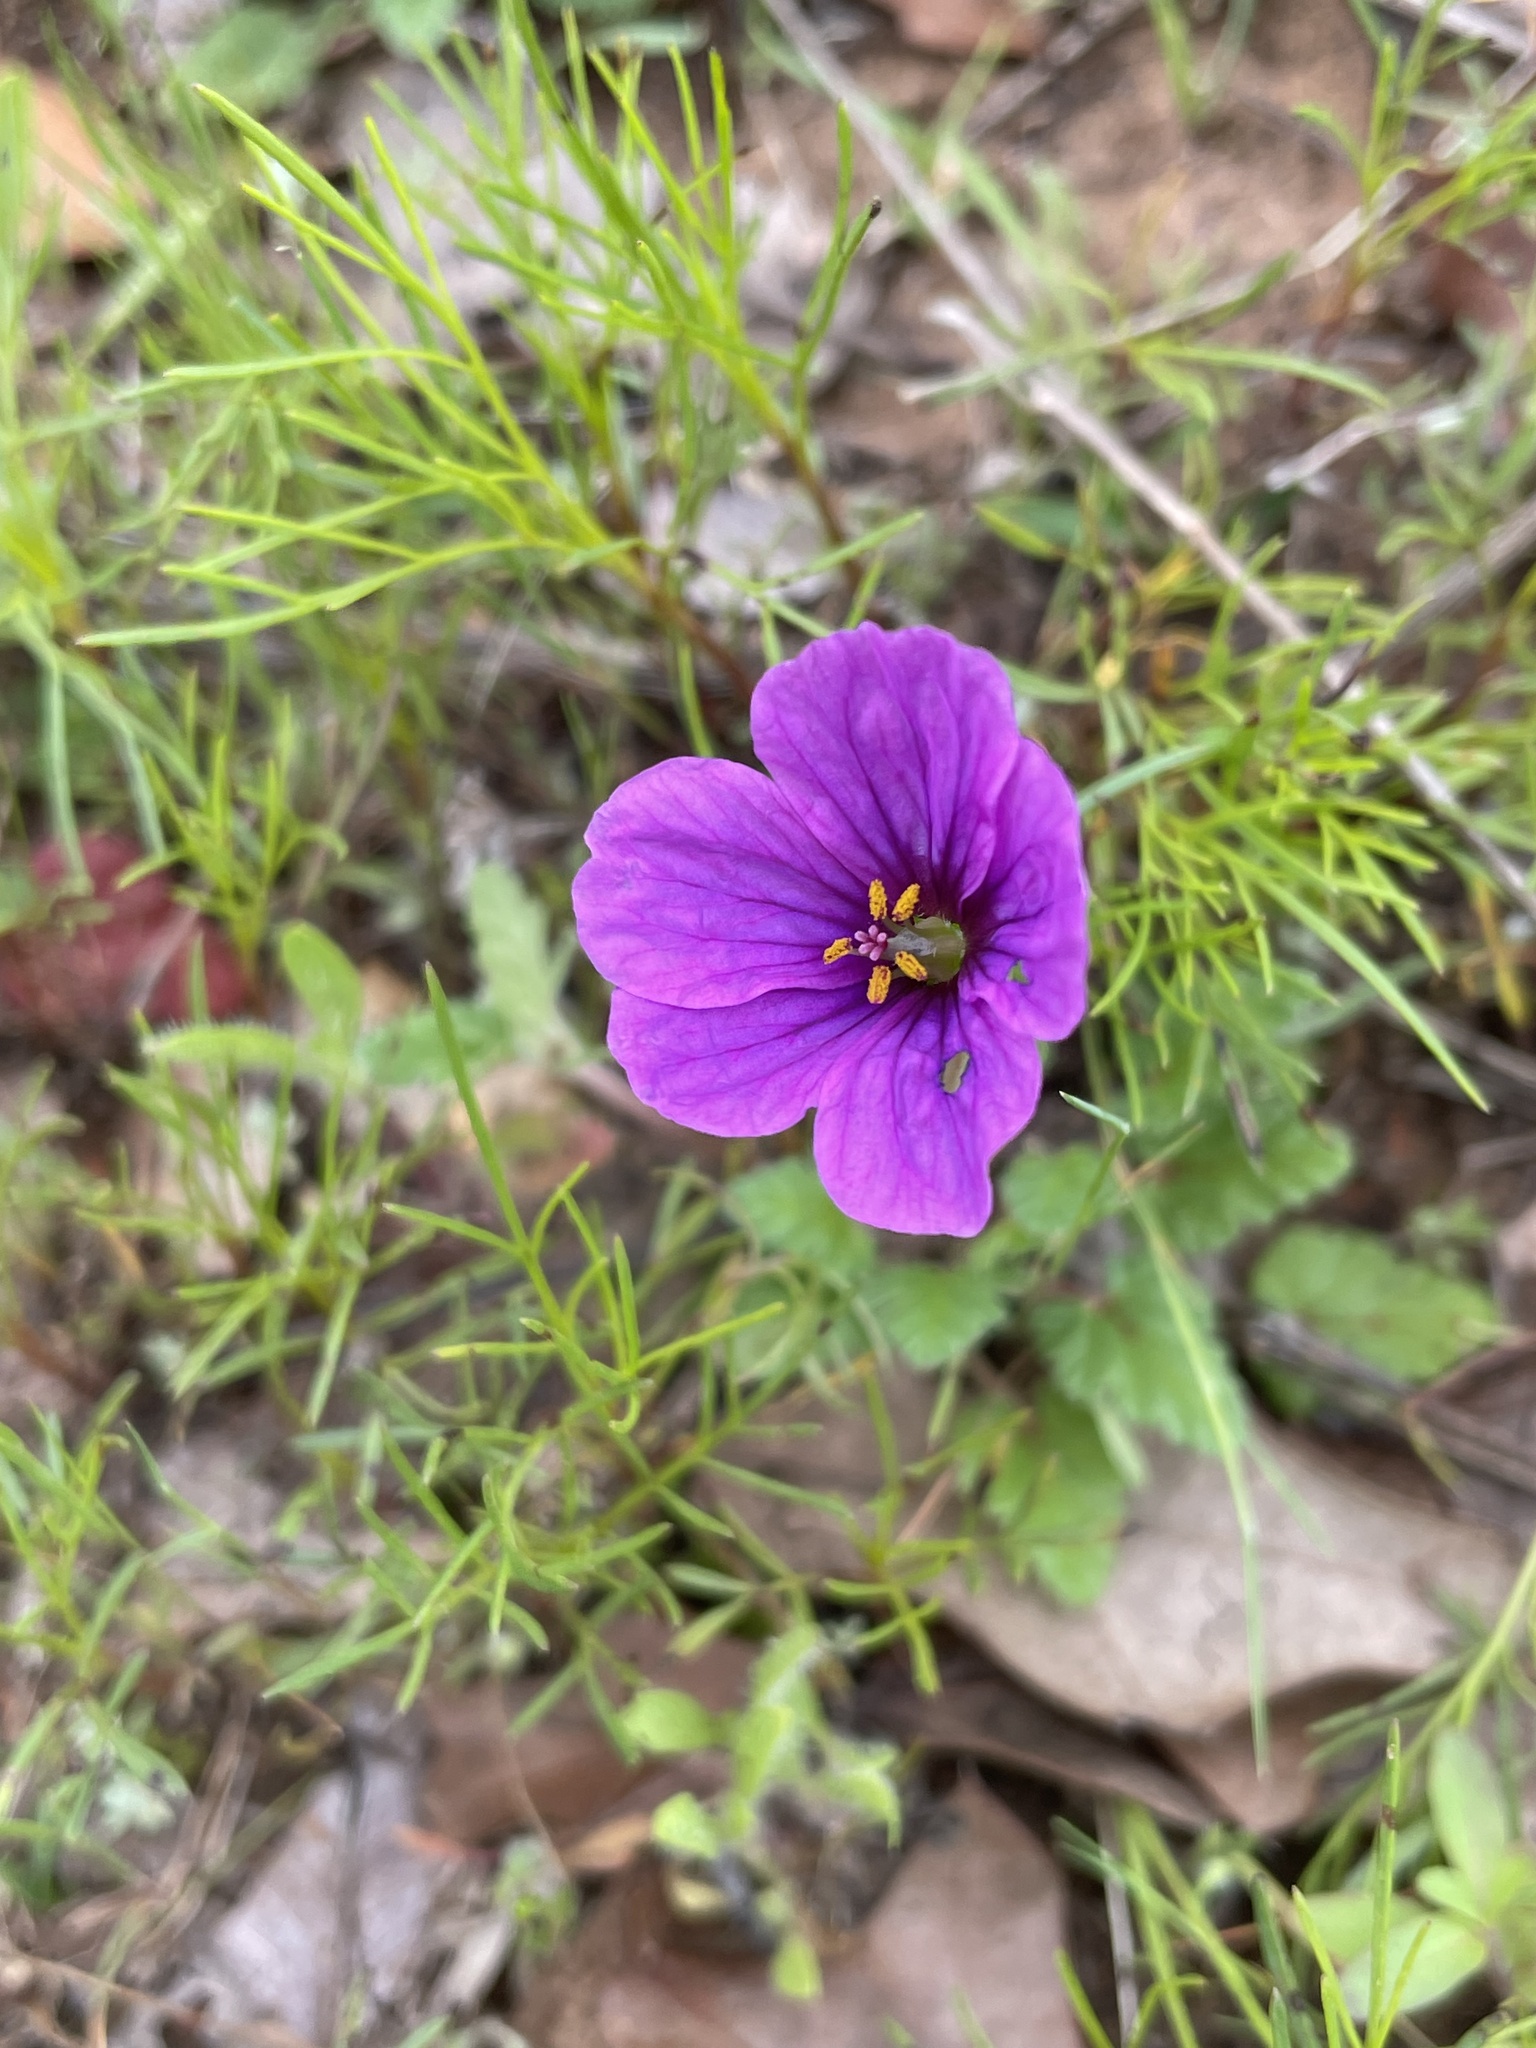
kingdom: Plantae
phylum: Tracheophyta
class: Magnoliopsida
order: Geraniales
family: Geraniaceae
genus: Erodium
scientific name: Erodium texanum
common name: Texas stork's-bill
